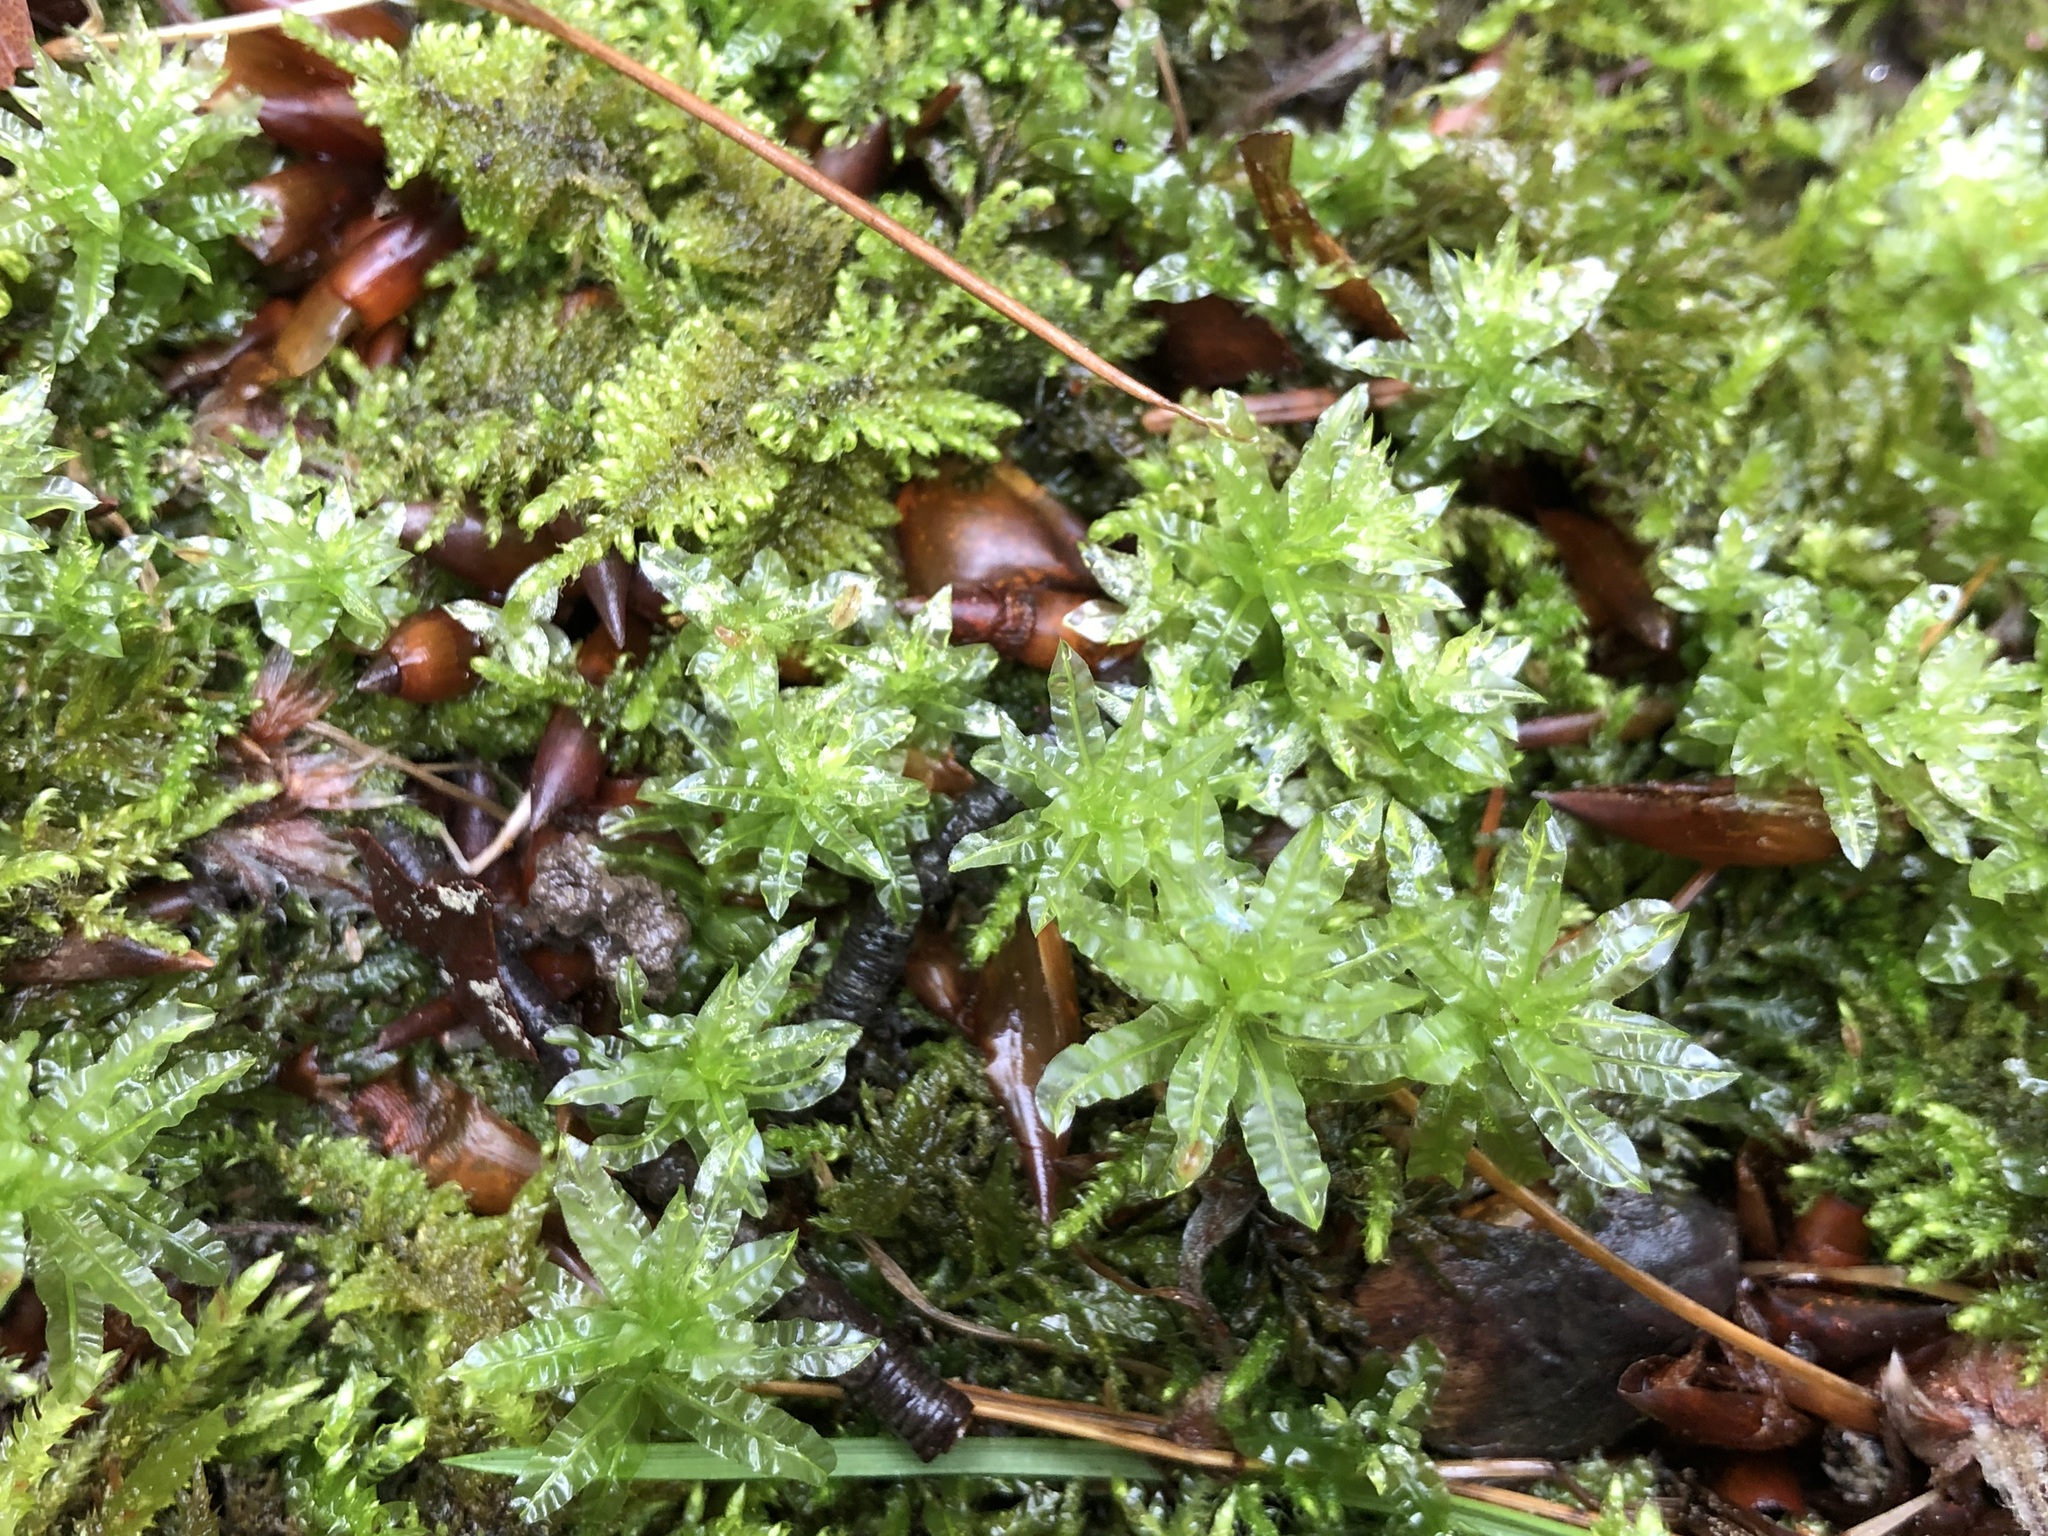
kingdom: Plantae
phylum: Bryophyta
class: Bryopsida
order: Bryales
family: Mniaceae
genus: Plagiomnium
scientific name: Plagiomnium undulatum
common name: Hart's-tongue thyme-moss
